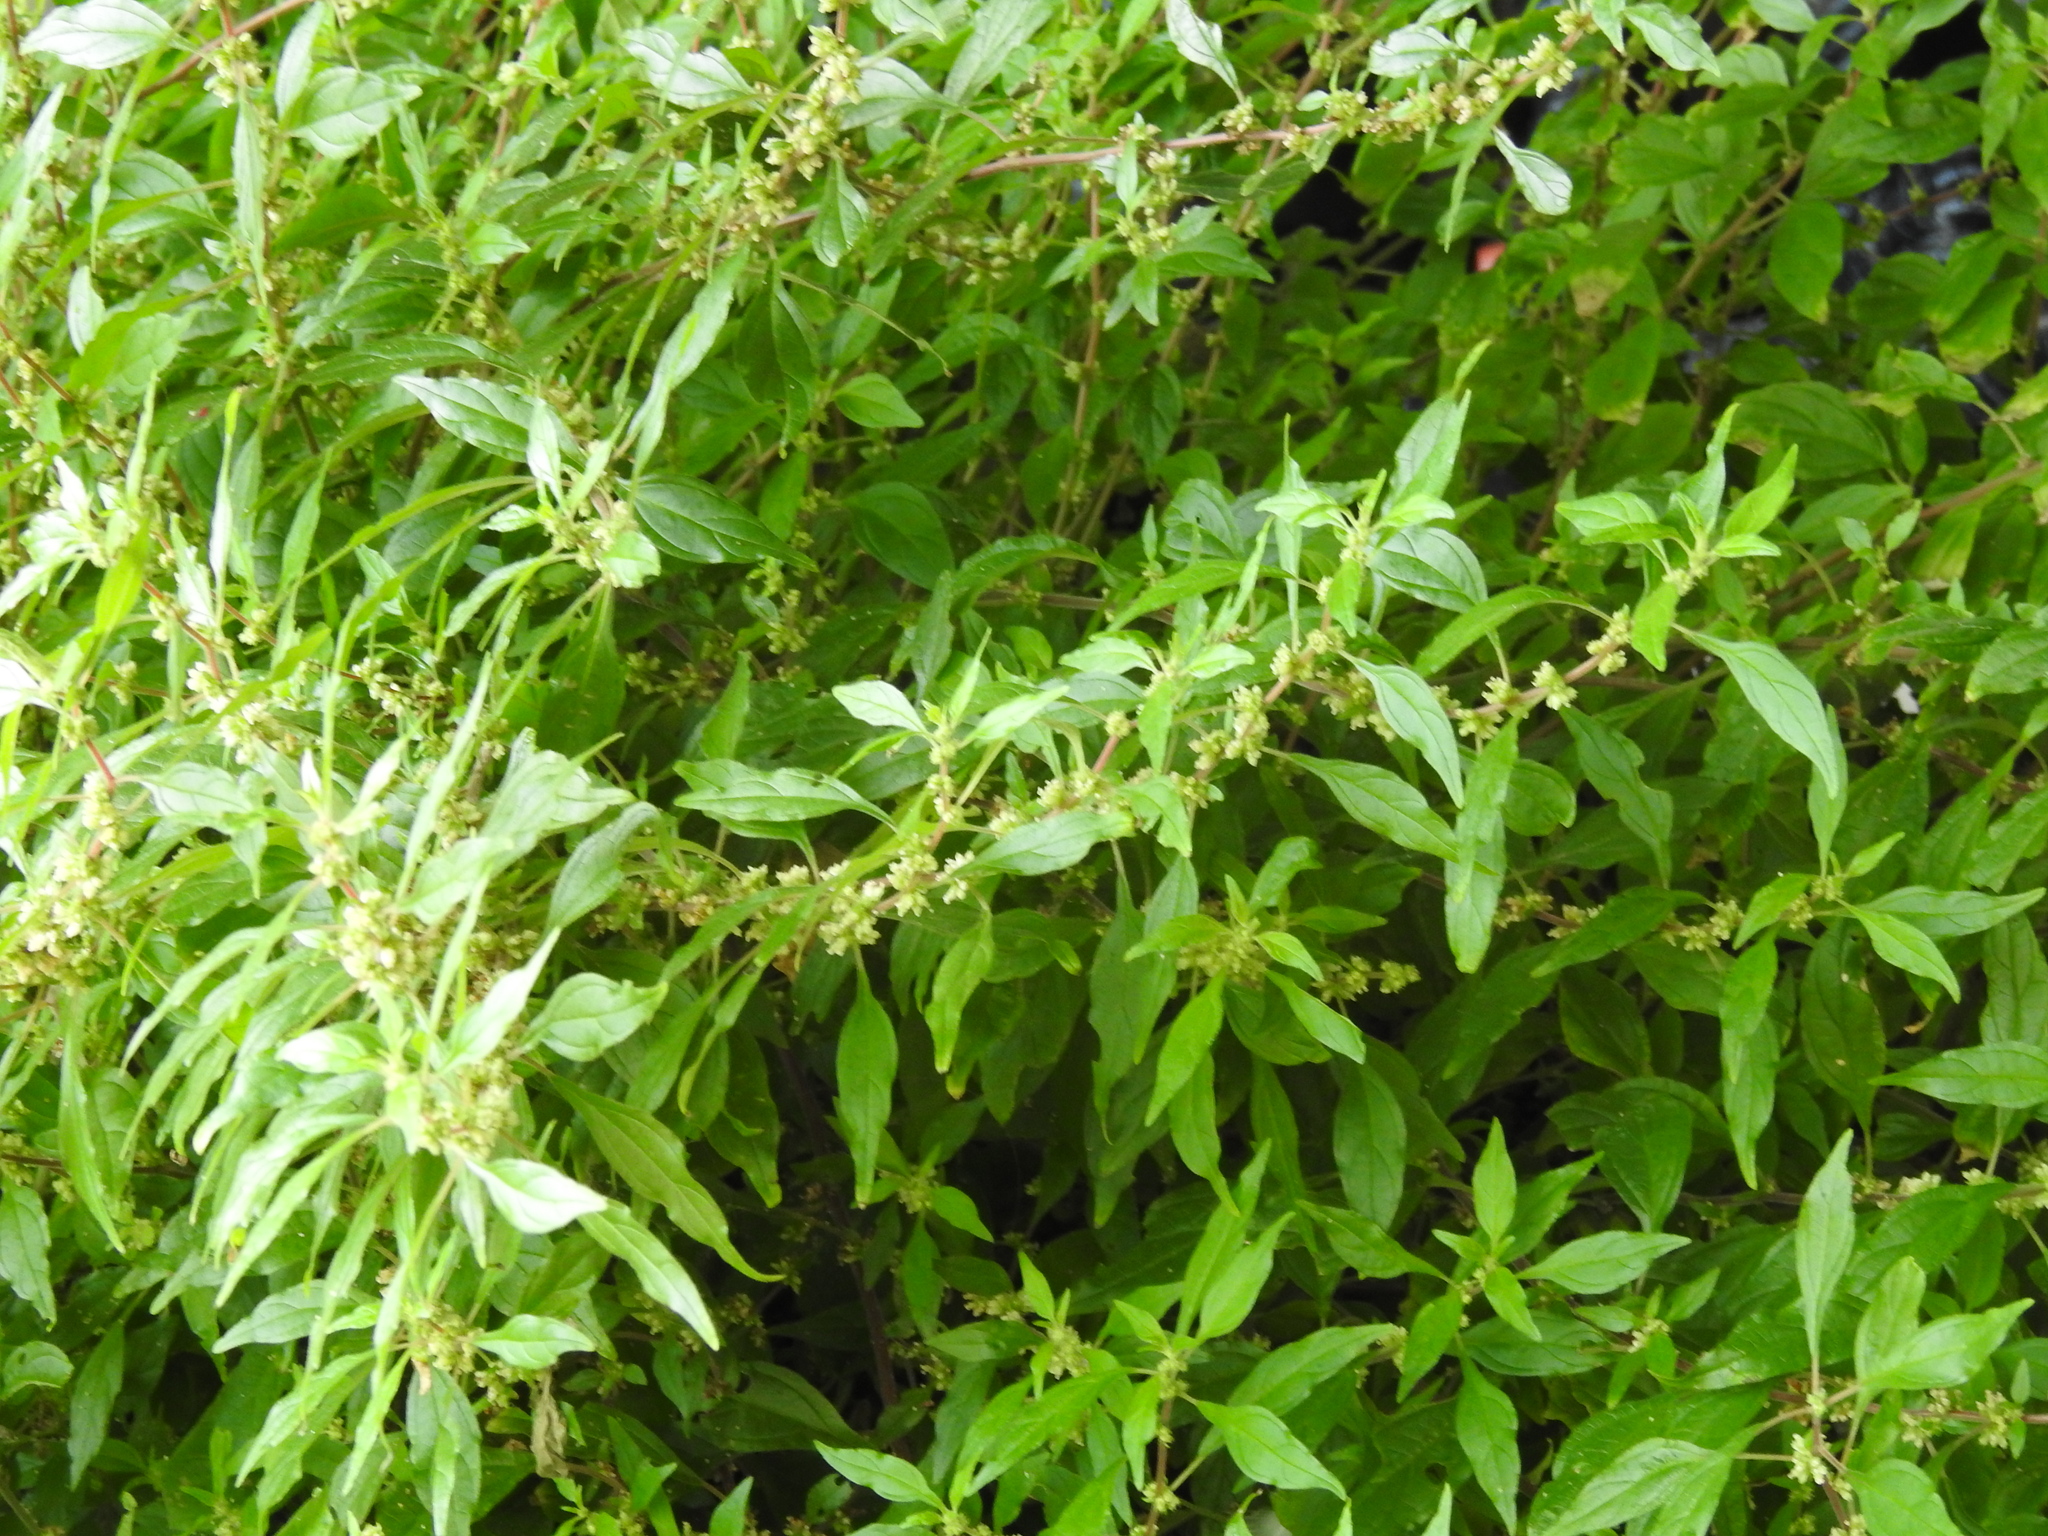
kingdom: Plantae
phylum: Tracheophyta
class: Magnoliopsida
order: Rosales
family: Urticaceae
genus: Parietaria
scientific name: Parietaria judaica
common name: Pellitory-of-the-wall
